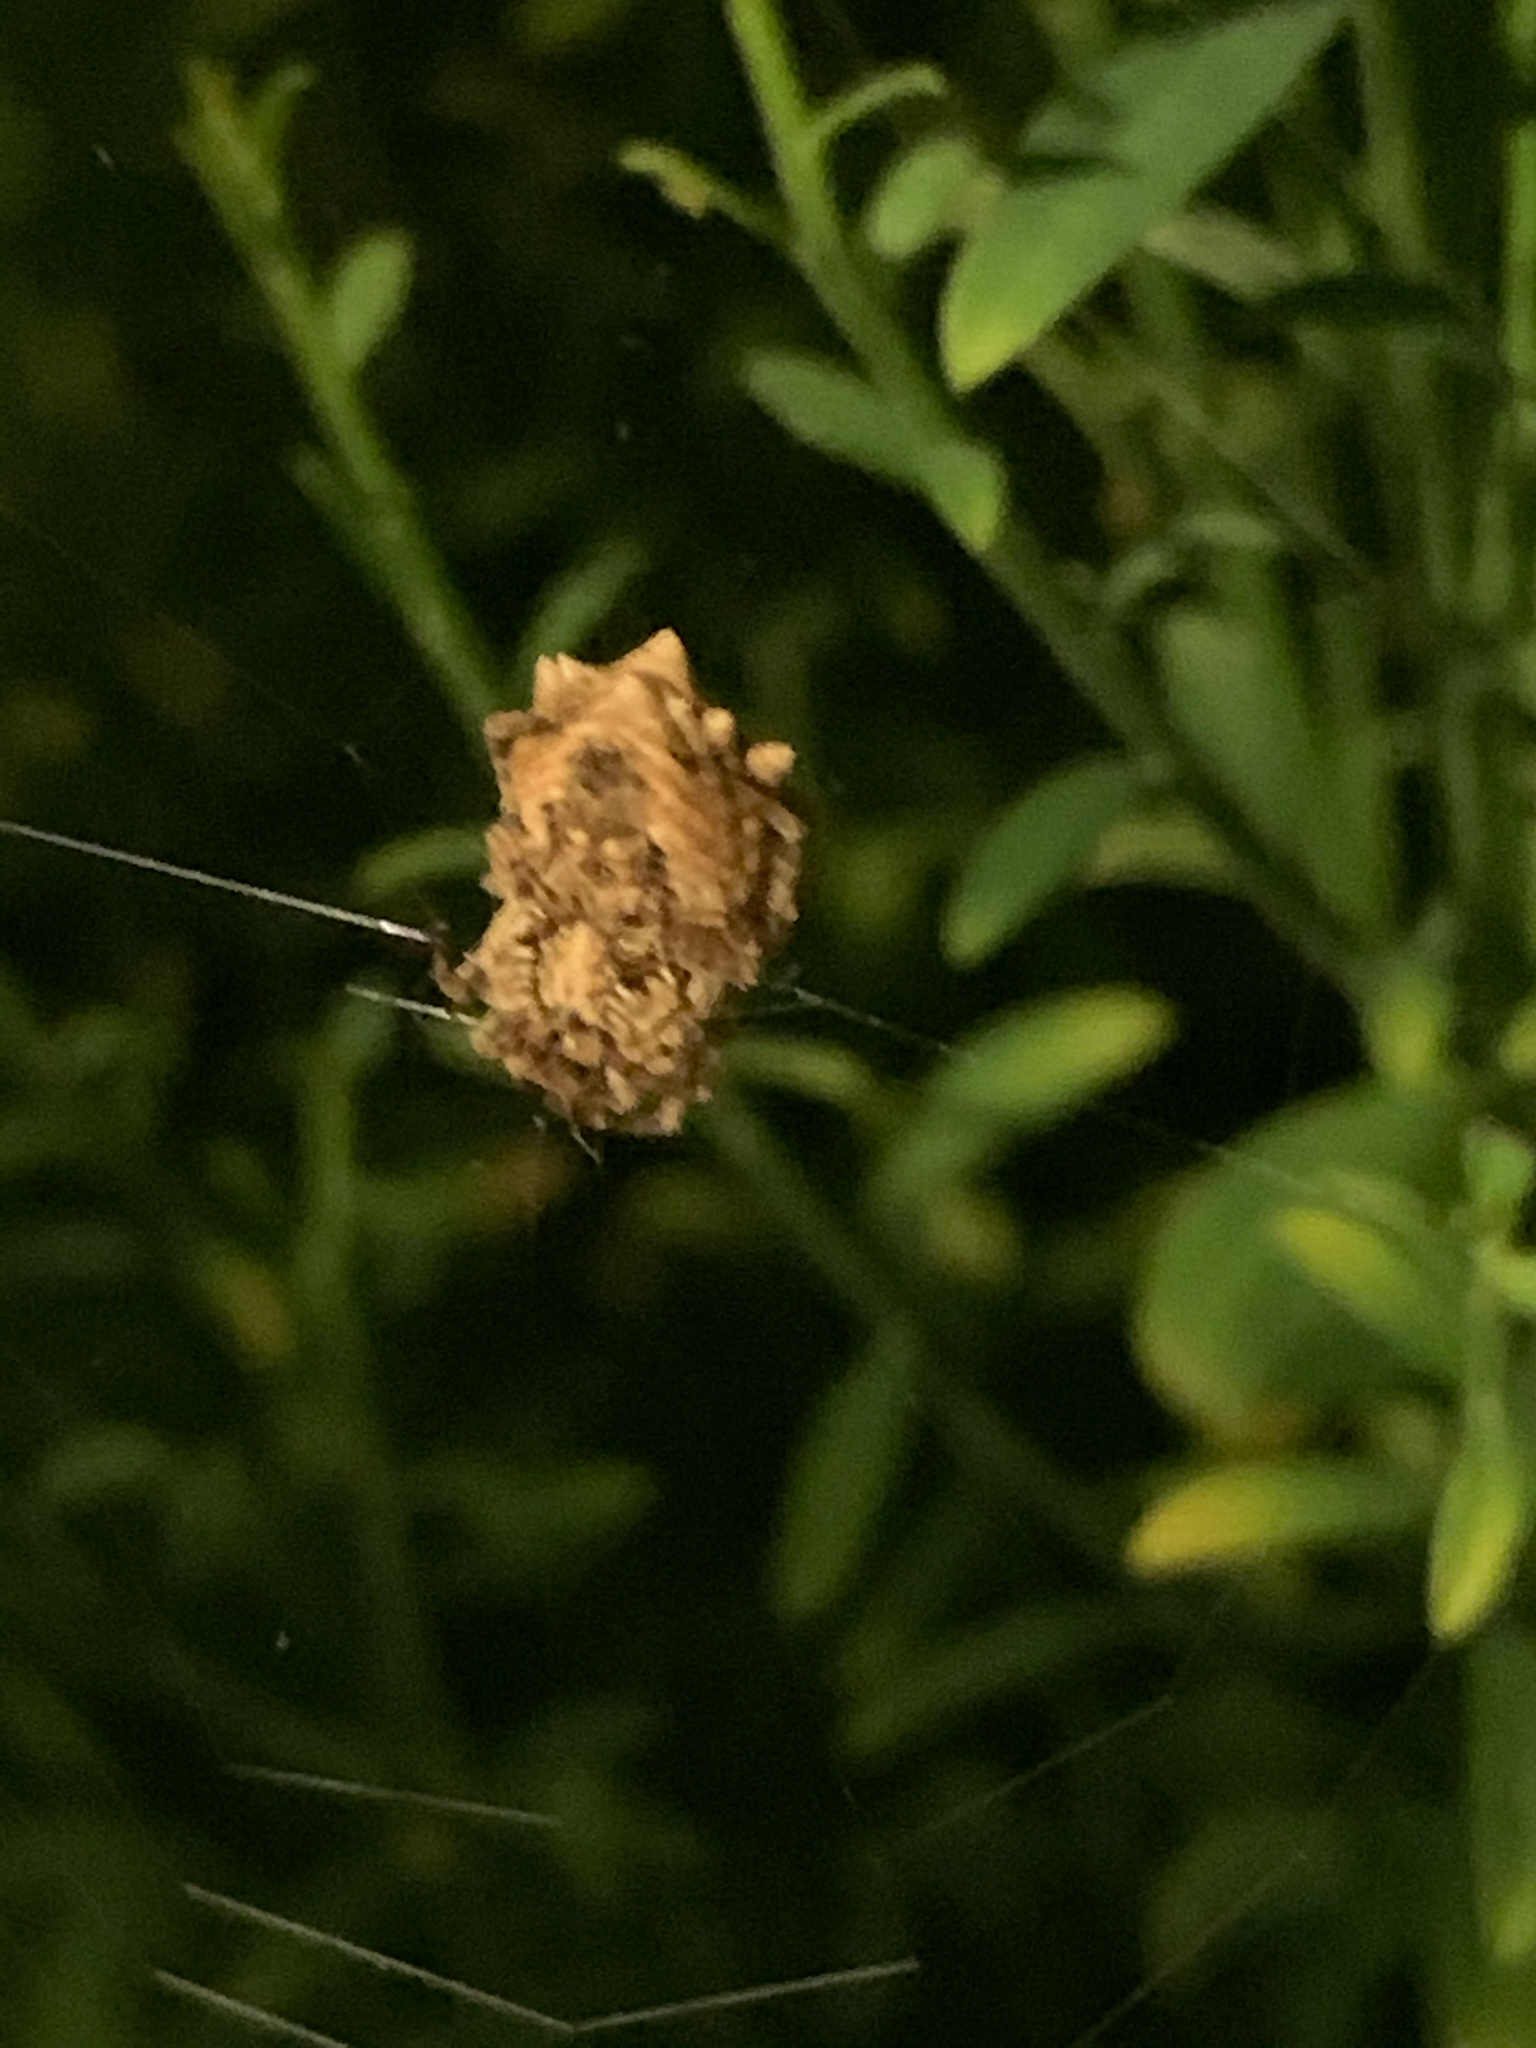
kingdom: Animalia
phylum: Arthropoda
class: Arachnida
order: Araneae
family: Araneidae
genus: Acanthepeira
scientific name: Acanthepeira stellata
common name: Starbellied orbweaver
